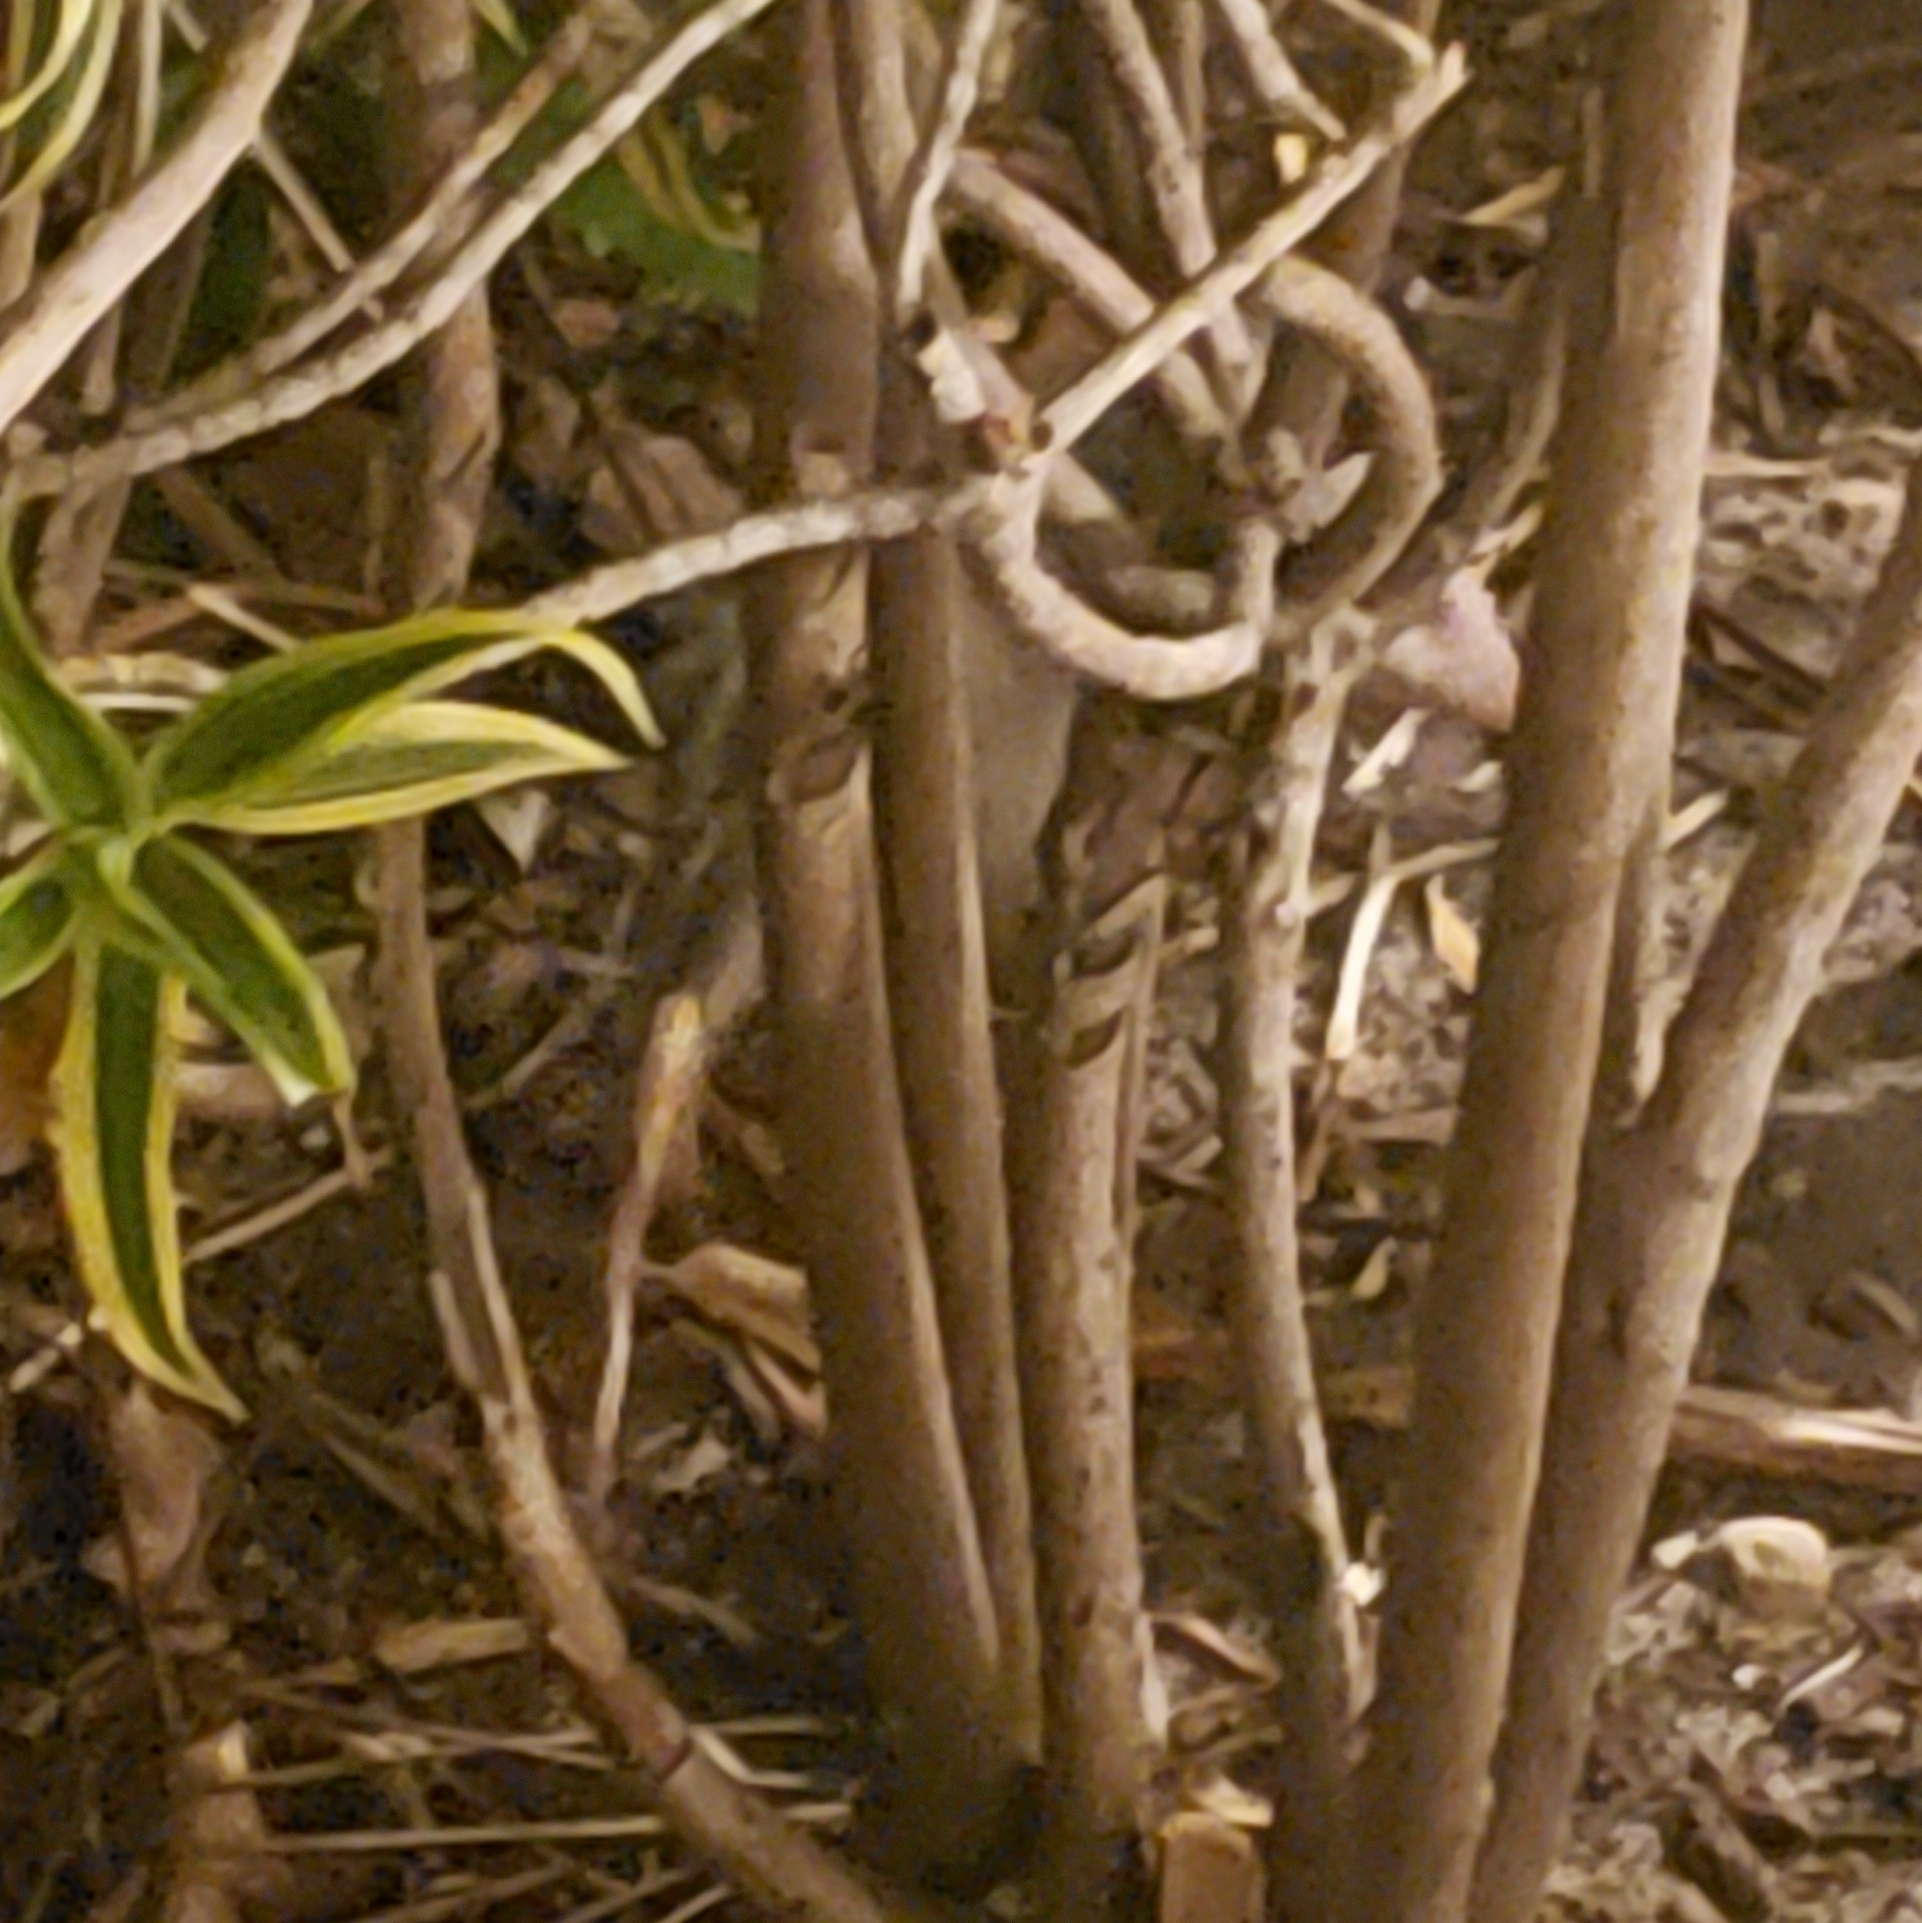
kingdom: Animalia
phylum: Chordata
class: Mammalia
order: Didelphimorphia
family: Didelphidae
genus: Didelphis
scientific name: Didelphis virginiana
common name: Virginia opossum
